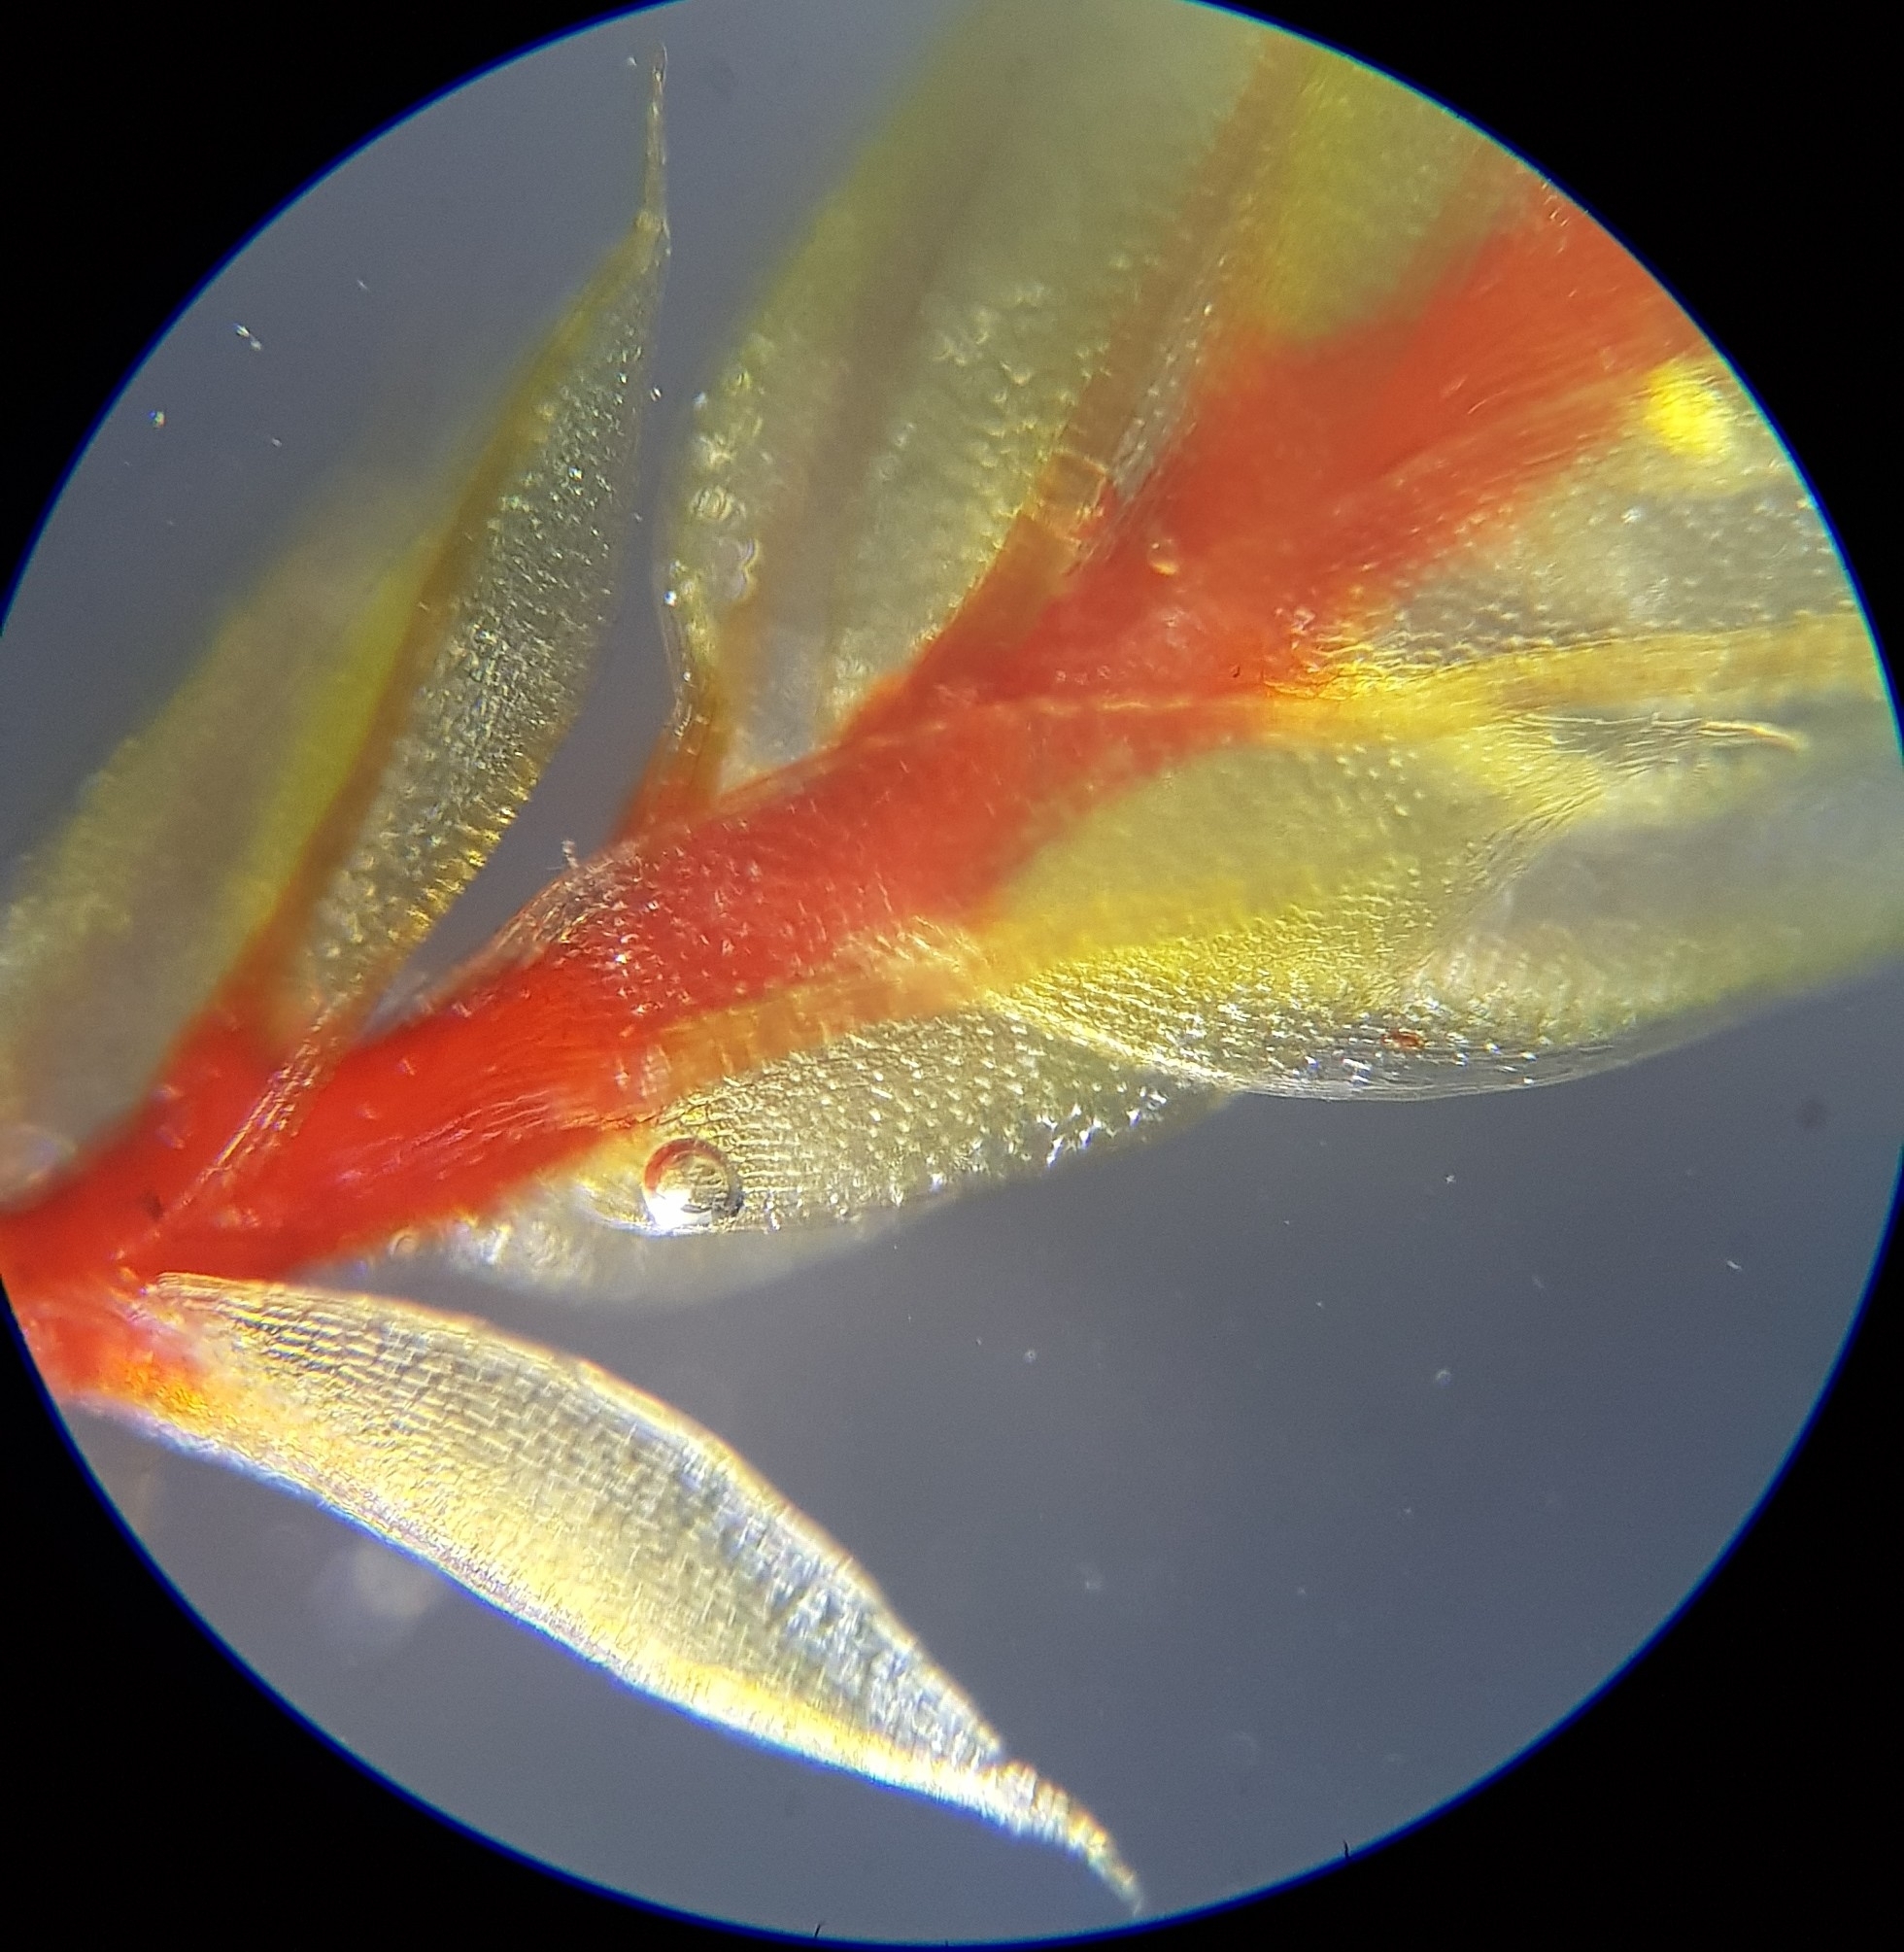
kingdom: Plantae
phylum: Bryophyta
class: Bryopsida
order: Bryales
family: Bryaceae
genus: Ptychostomum
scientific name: Ptychostomum pseudotriquetrum
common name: Long-leaved thread moss
